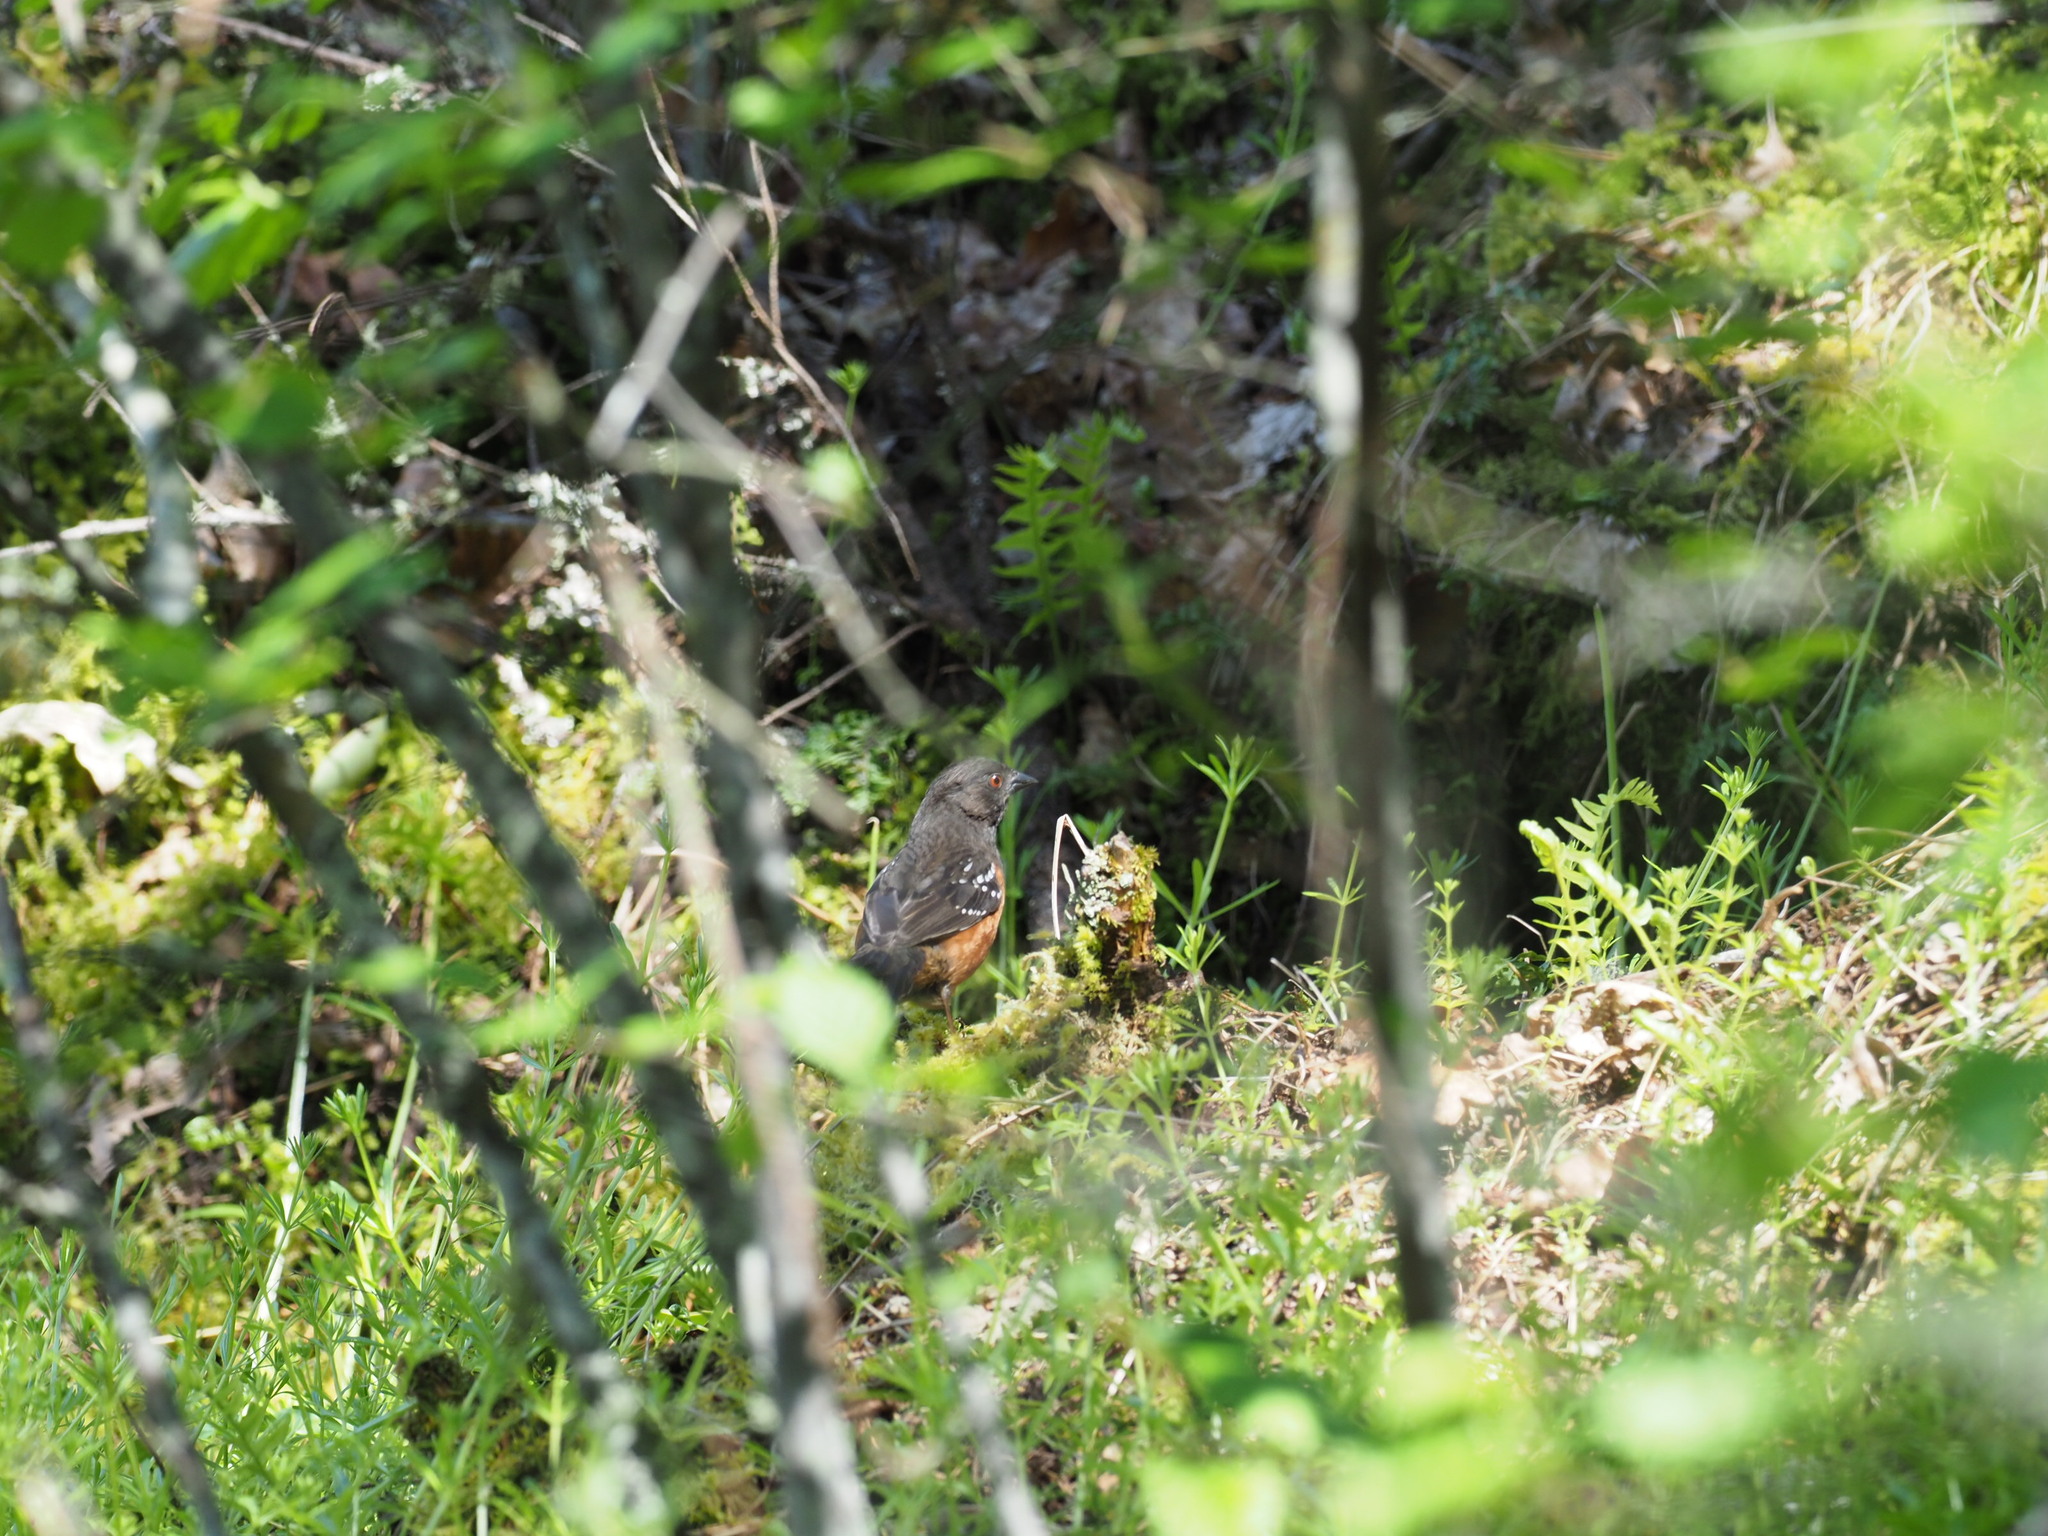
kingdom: Animalia
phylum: Chordata
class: Aves
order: Passeriformes
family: Passerellidae
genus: Pipilo
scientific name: Pipilo maculatus
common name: Spotted towhee
